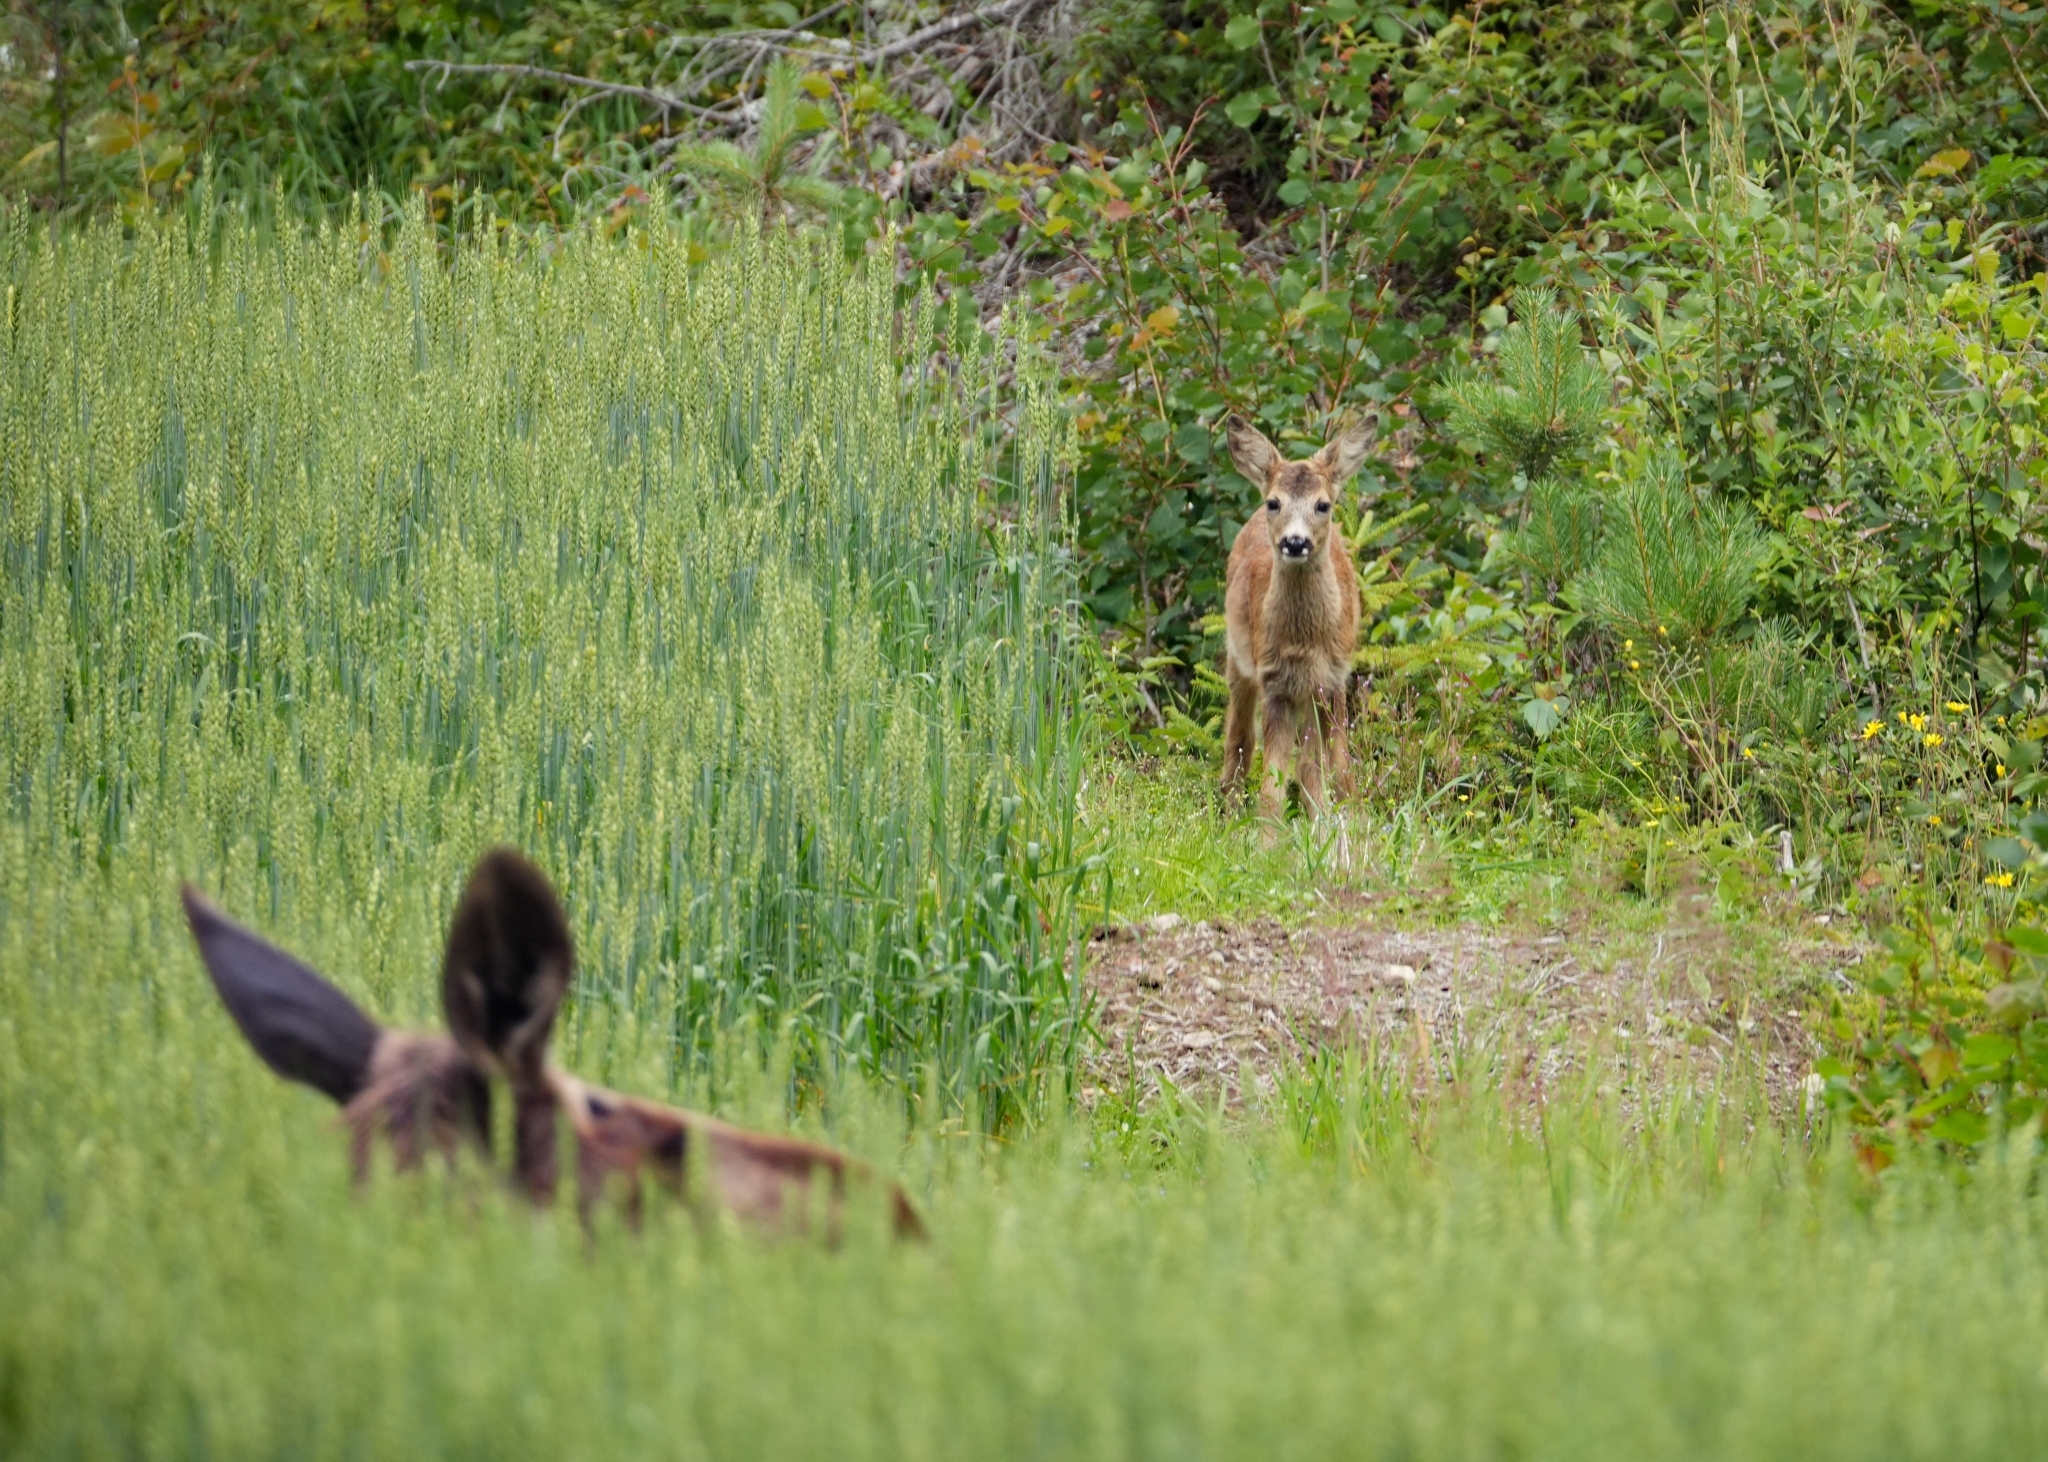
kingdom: Animalia
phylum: Chordata
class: Mammalia
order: Artiodactyla
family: Cervidae
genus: Capreolus
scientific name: Capreolus capreolus
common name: Western roe deer
